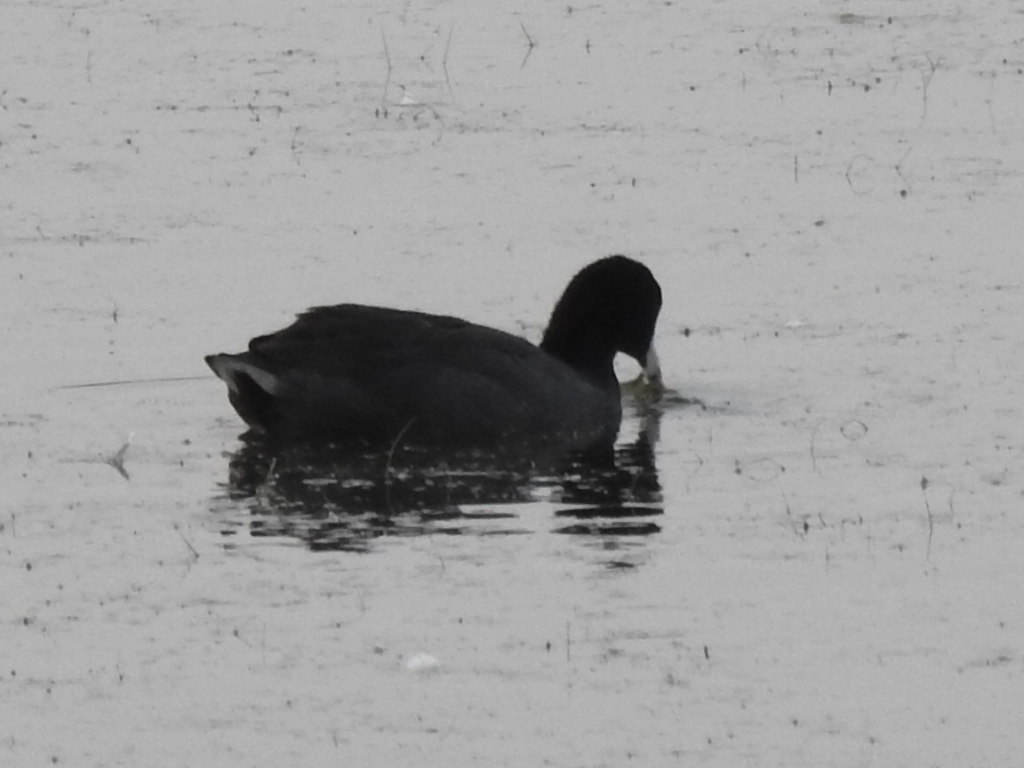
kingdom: Animalia
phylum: Chordata
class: Aves
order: Gruiformes
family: Rallidae
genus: Fulica
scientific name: Fulica americana
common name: American coot
